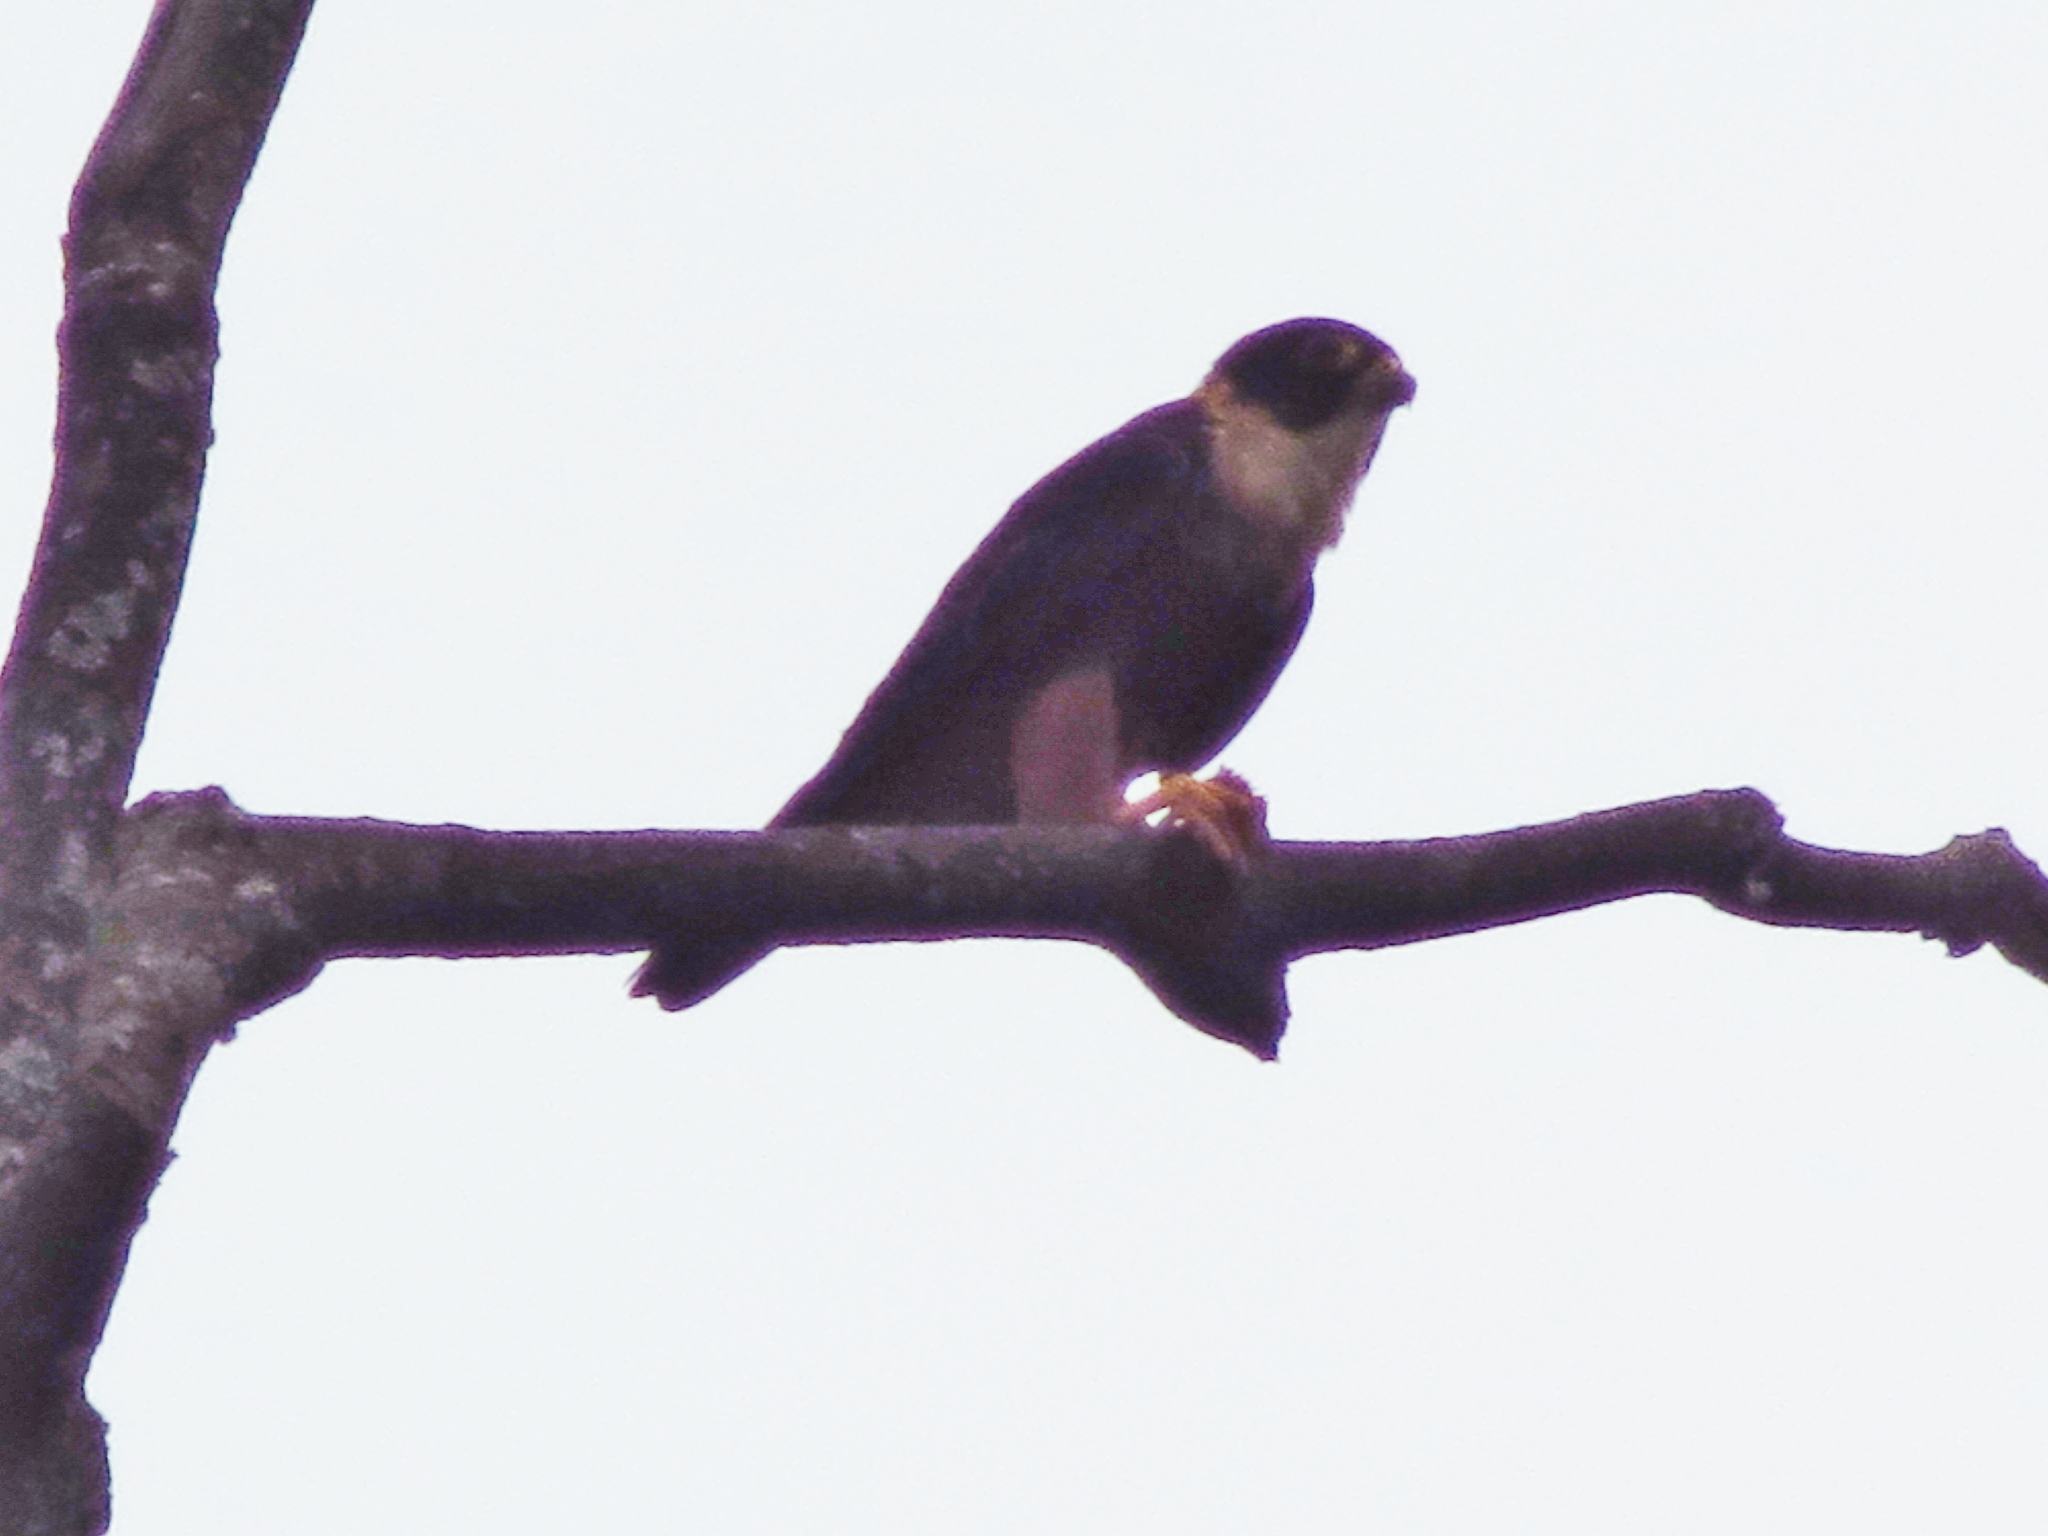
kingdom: Animalia
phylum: Chordata
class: Aves
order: Falconiformes
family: Falconidae
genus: Falco
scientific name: Falco rufigularis
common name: Bat falcon
